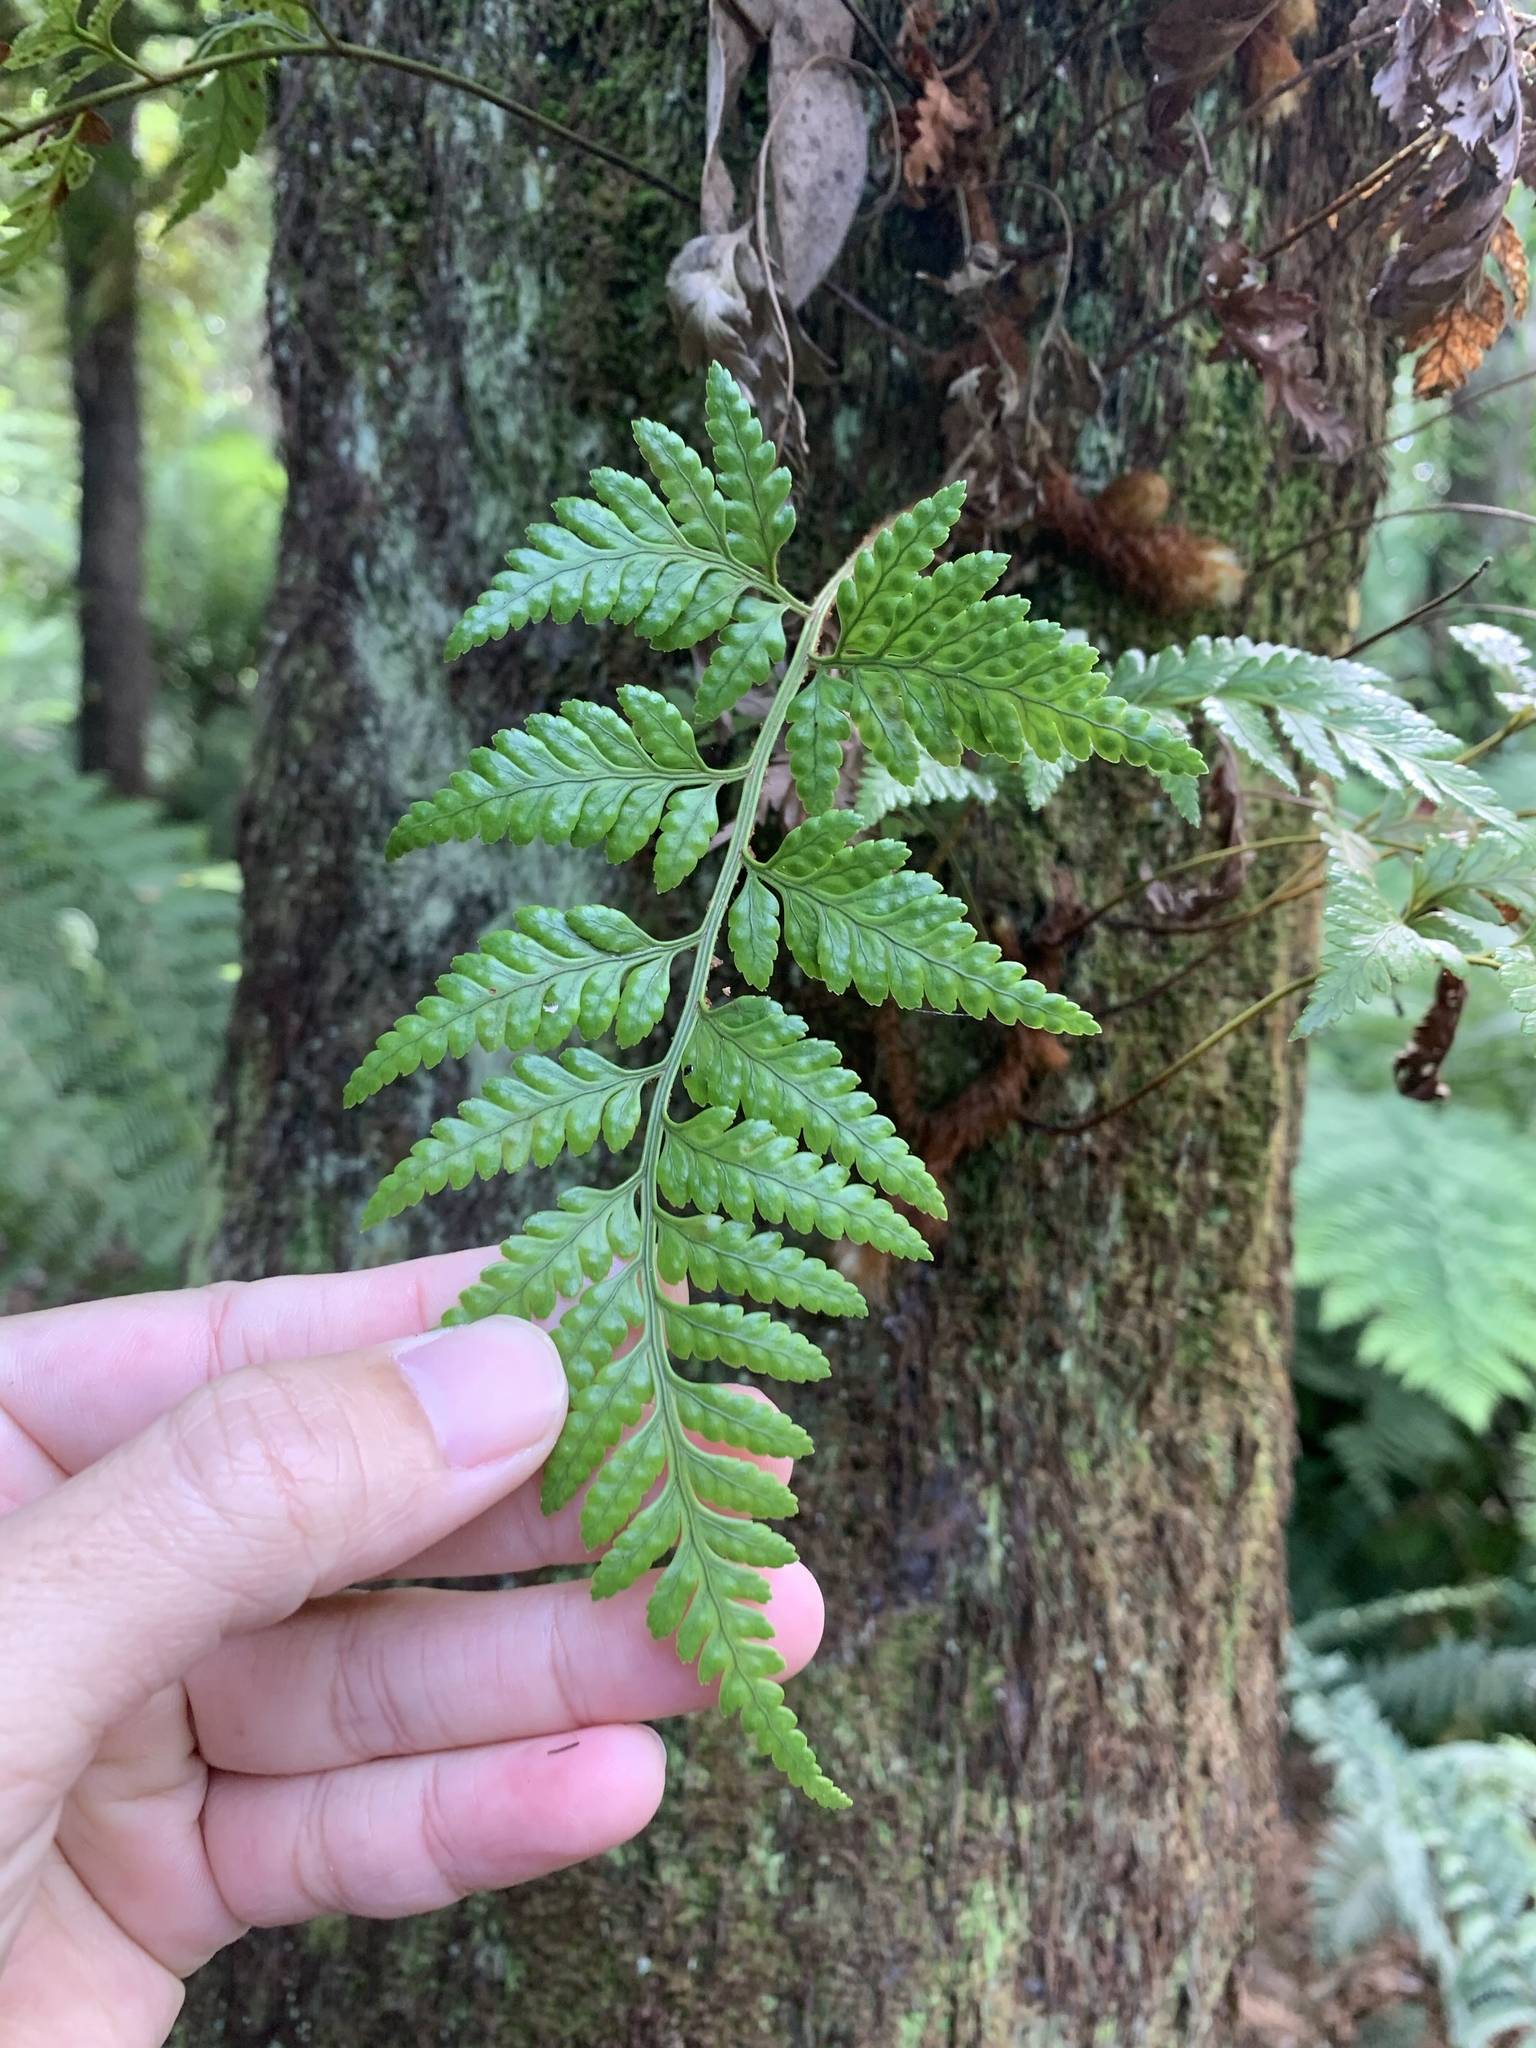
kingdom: Plantae
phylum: Tracheophyta
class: Polypodiopsida
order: Polypodiales
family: Dryopteridaceae
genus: Rumohra
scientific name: Rumohra adiantiformis
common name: Leather fern
